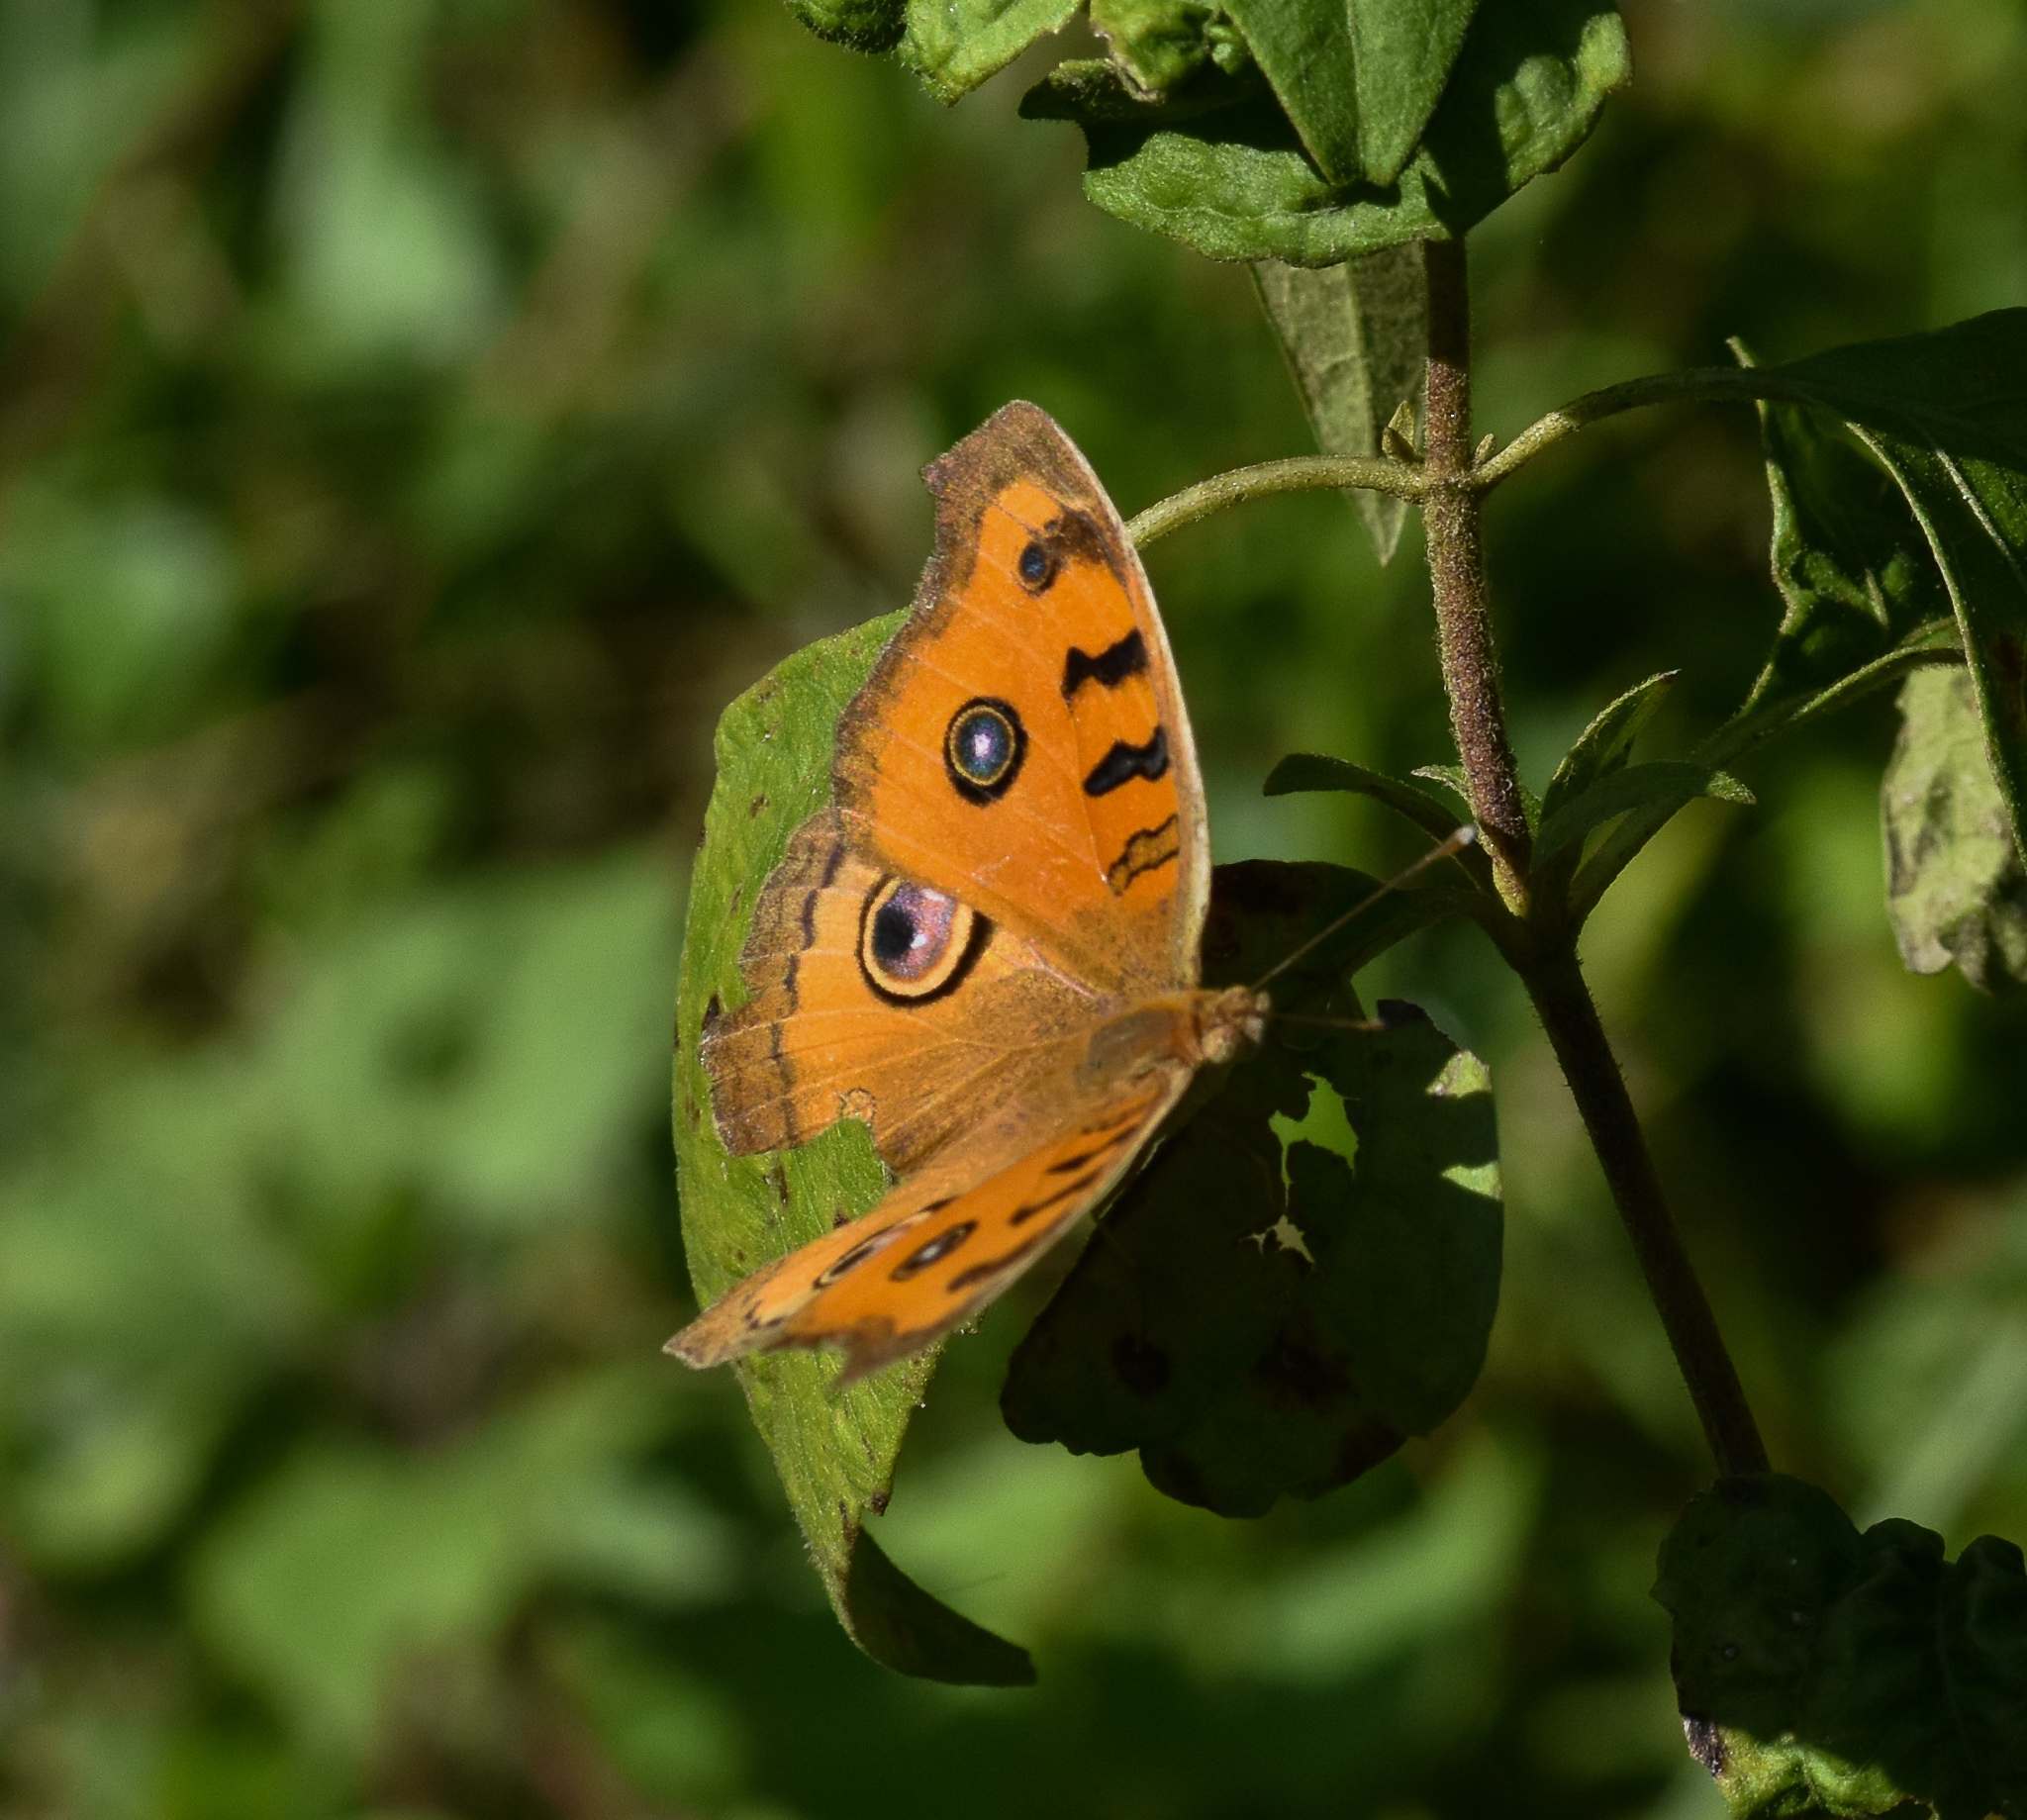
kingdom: Animalia
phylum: Arthropoda
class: Insecta
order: Lepidoptera
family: Nymphalidae
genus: Junonia
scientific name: Junonia almana
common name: Peacock pansy
